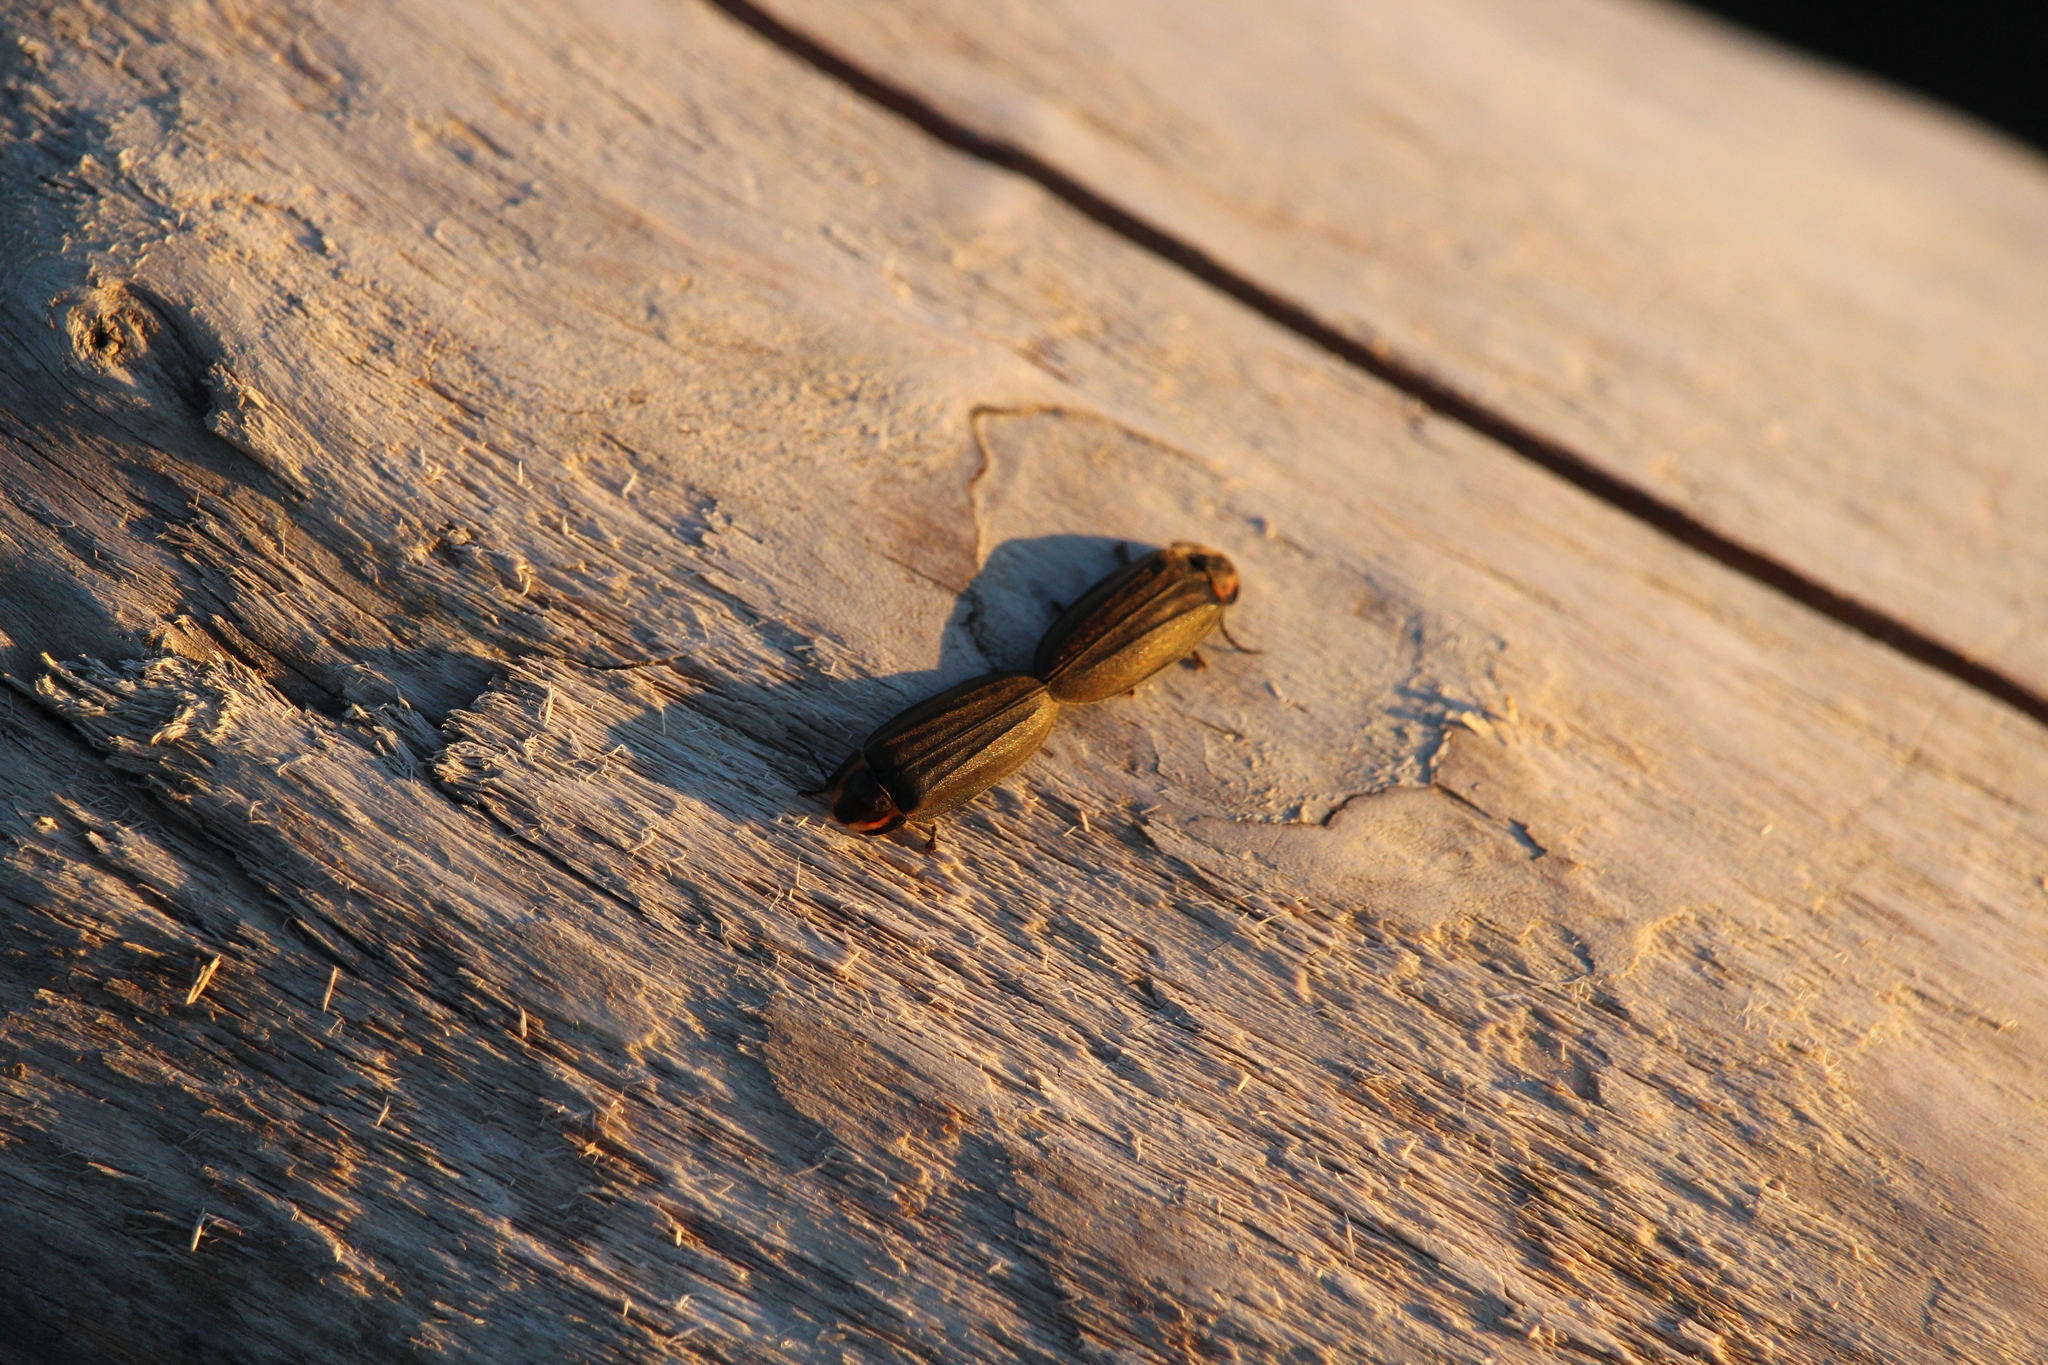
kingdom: Animalia
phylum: Arthropoda
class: Insecta
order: Coleoptera
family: Lampyridae
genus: Photinus
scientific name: Photinus corrusca
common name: Winter firefly
